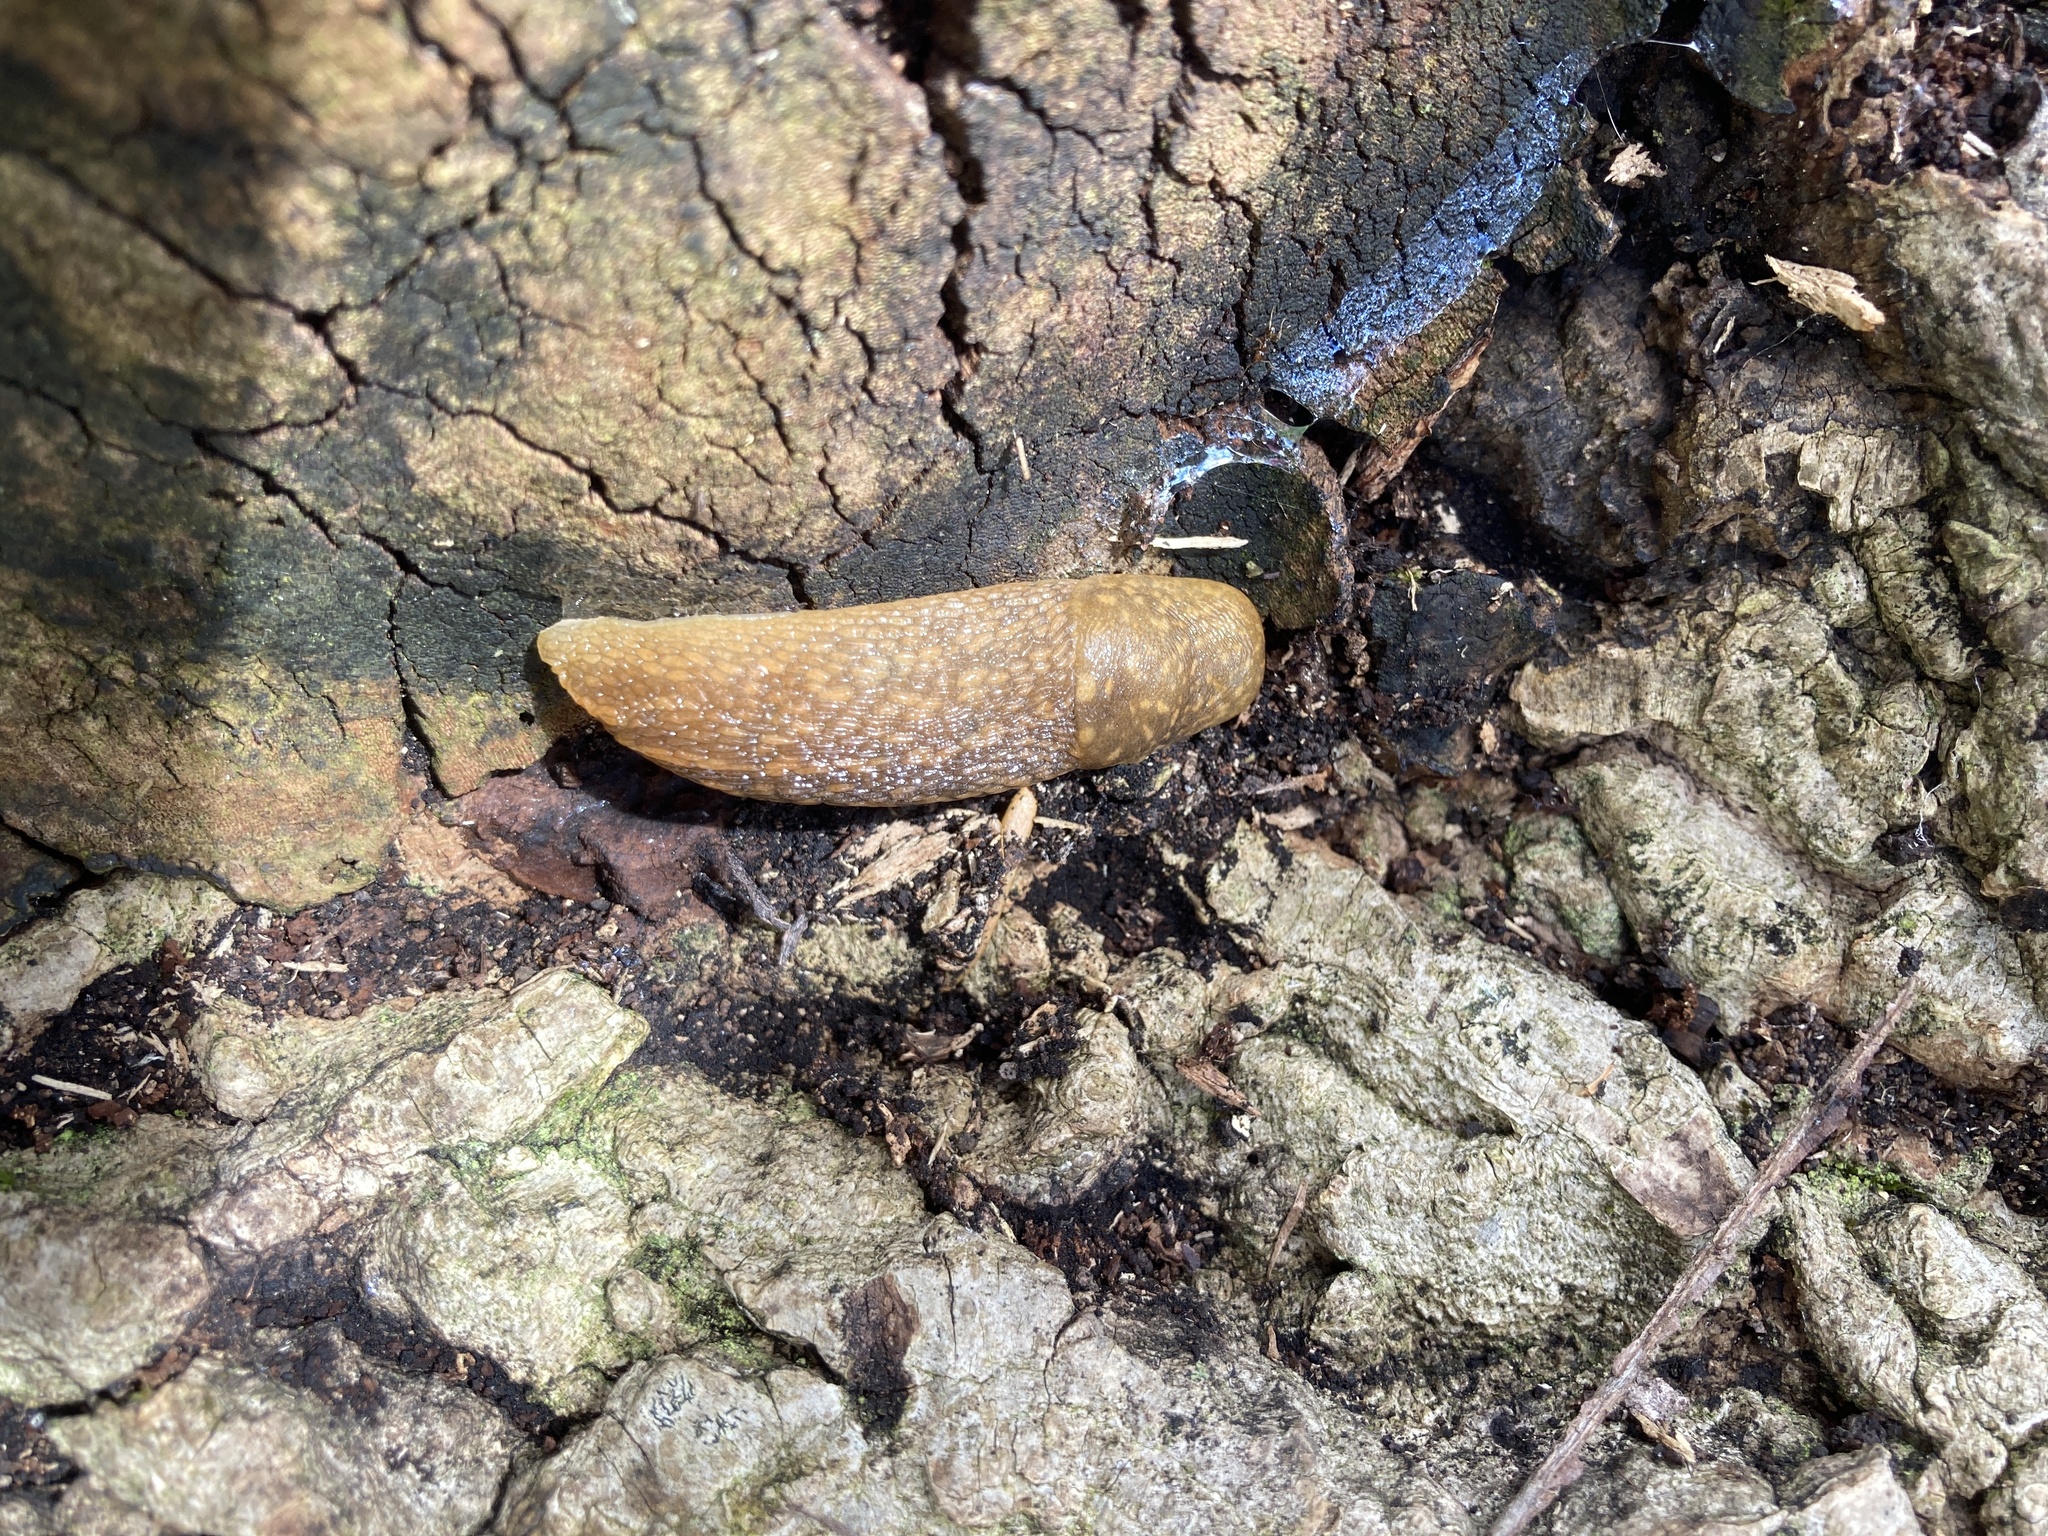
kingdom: Animalia
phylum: Mollusca
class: Gastropoda
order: Stylommatophora
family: Limacidae
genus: Limacus
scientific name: Limacus flavus
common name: Yellow gardenslug
